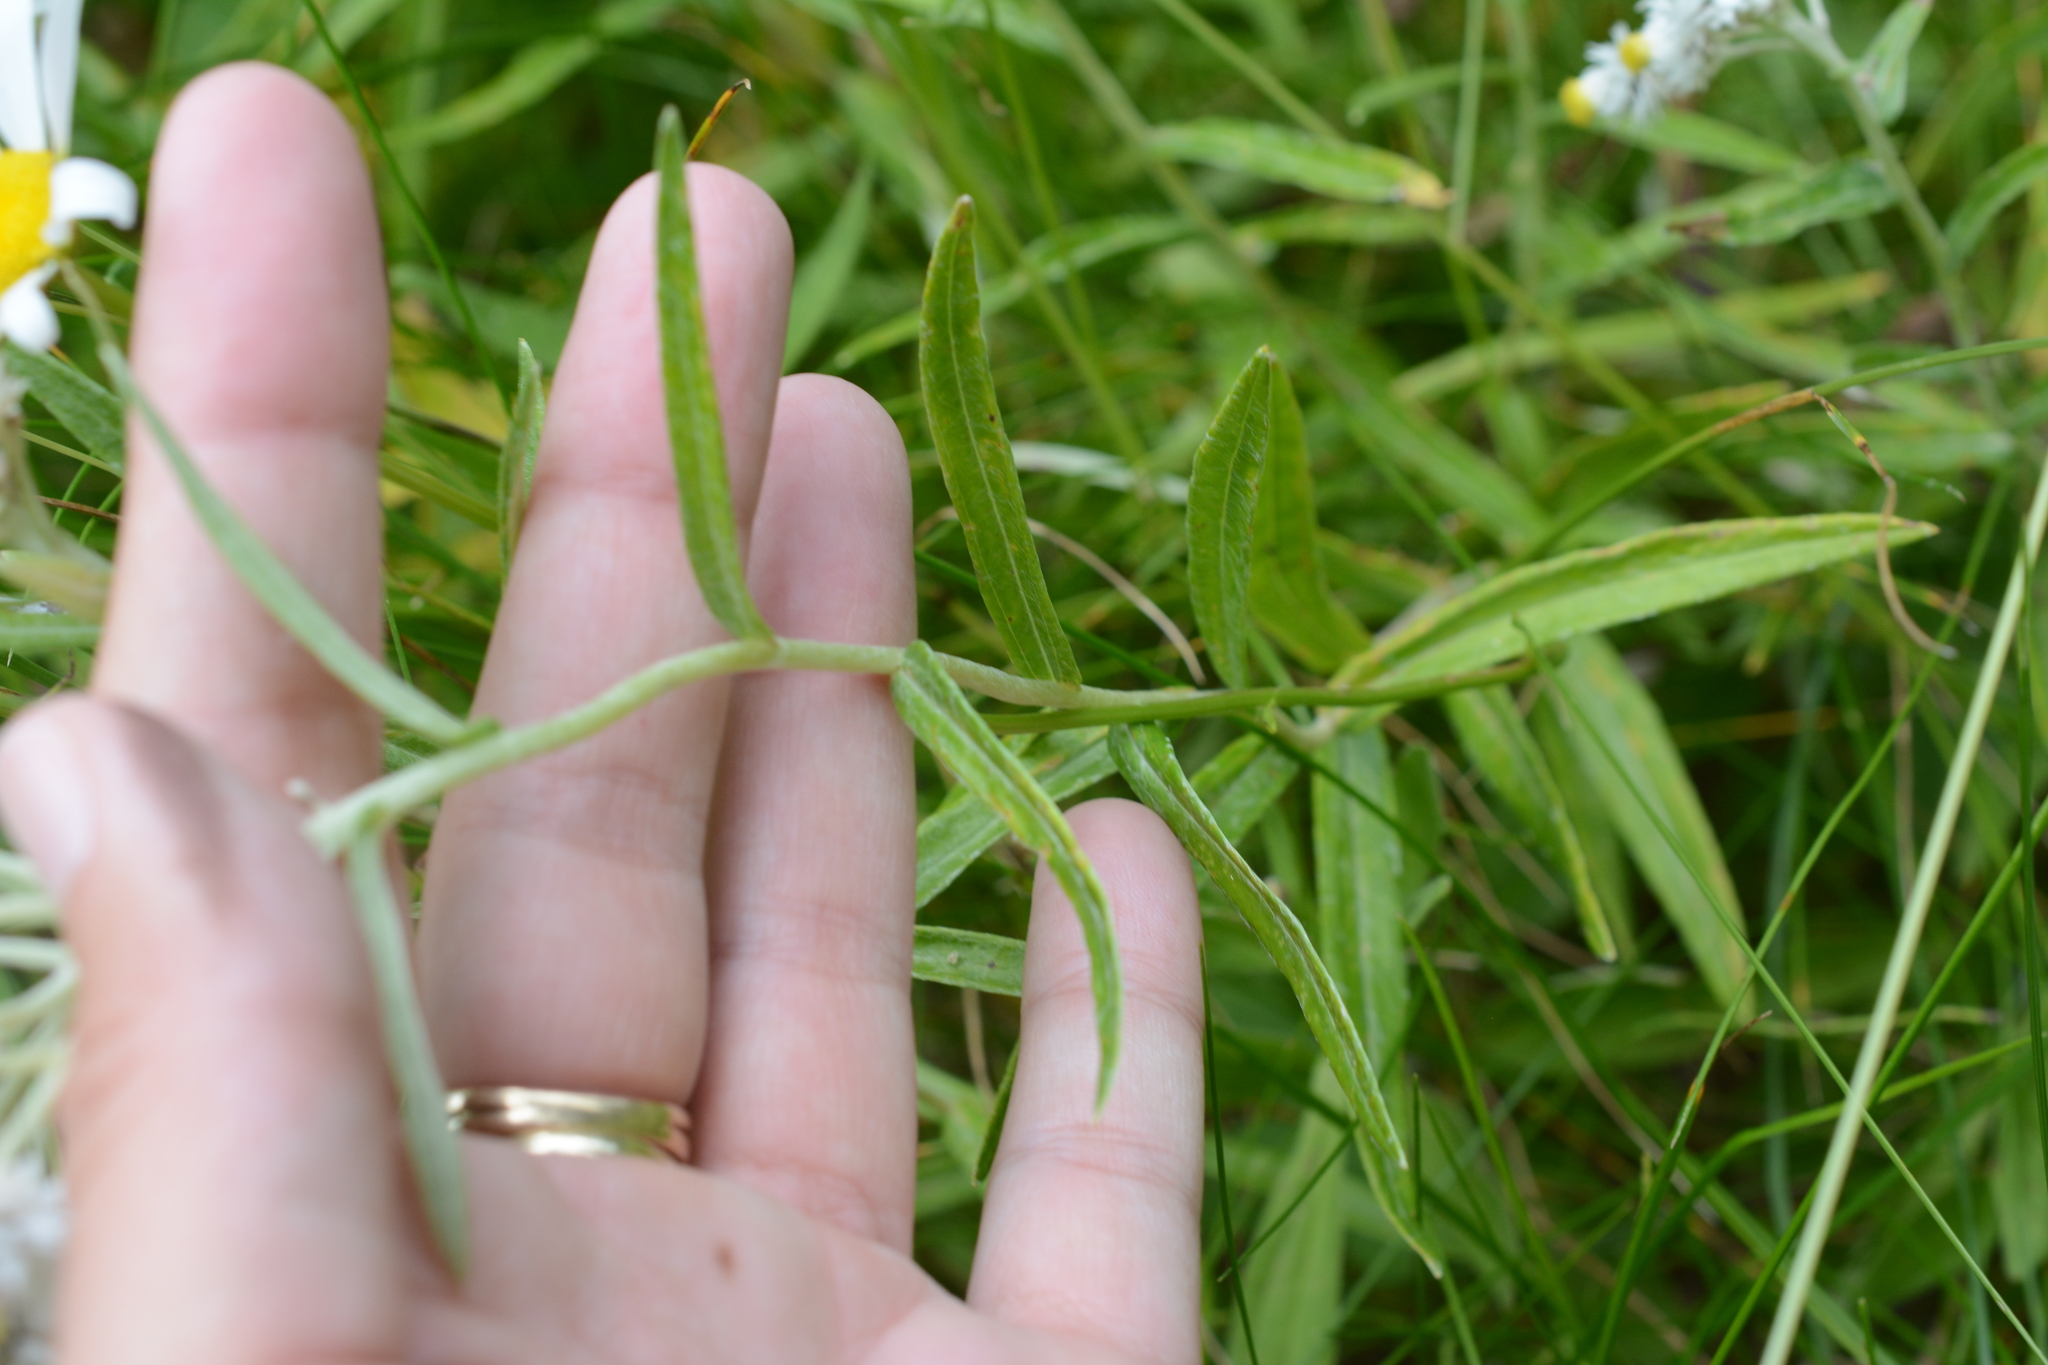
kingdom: Plantae
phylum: Tracheophyta
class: Magnoliopsida
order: Asterales
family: Asteraceae
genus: Anaphalis
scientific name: Anaphalis margaritacea
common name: Pearly everlasting
